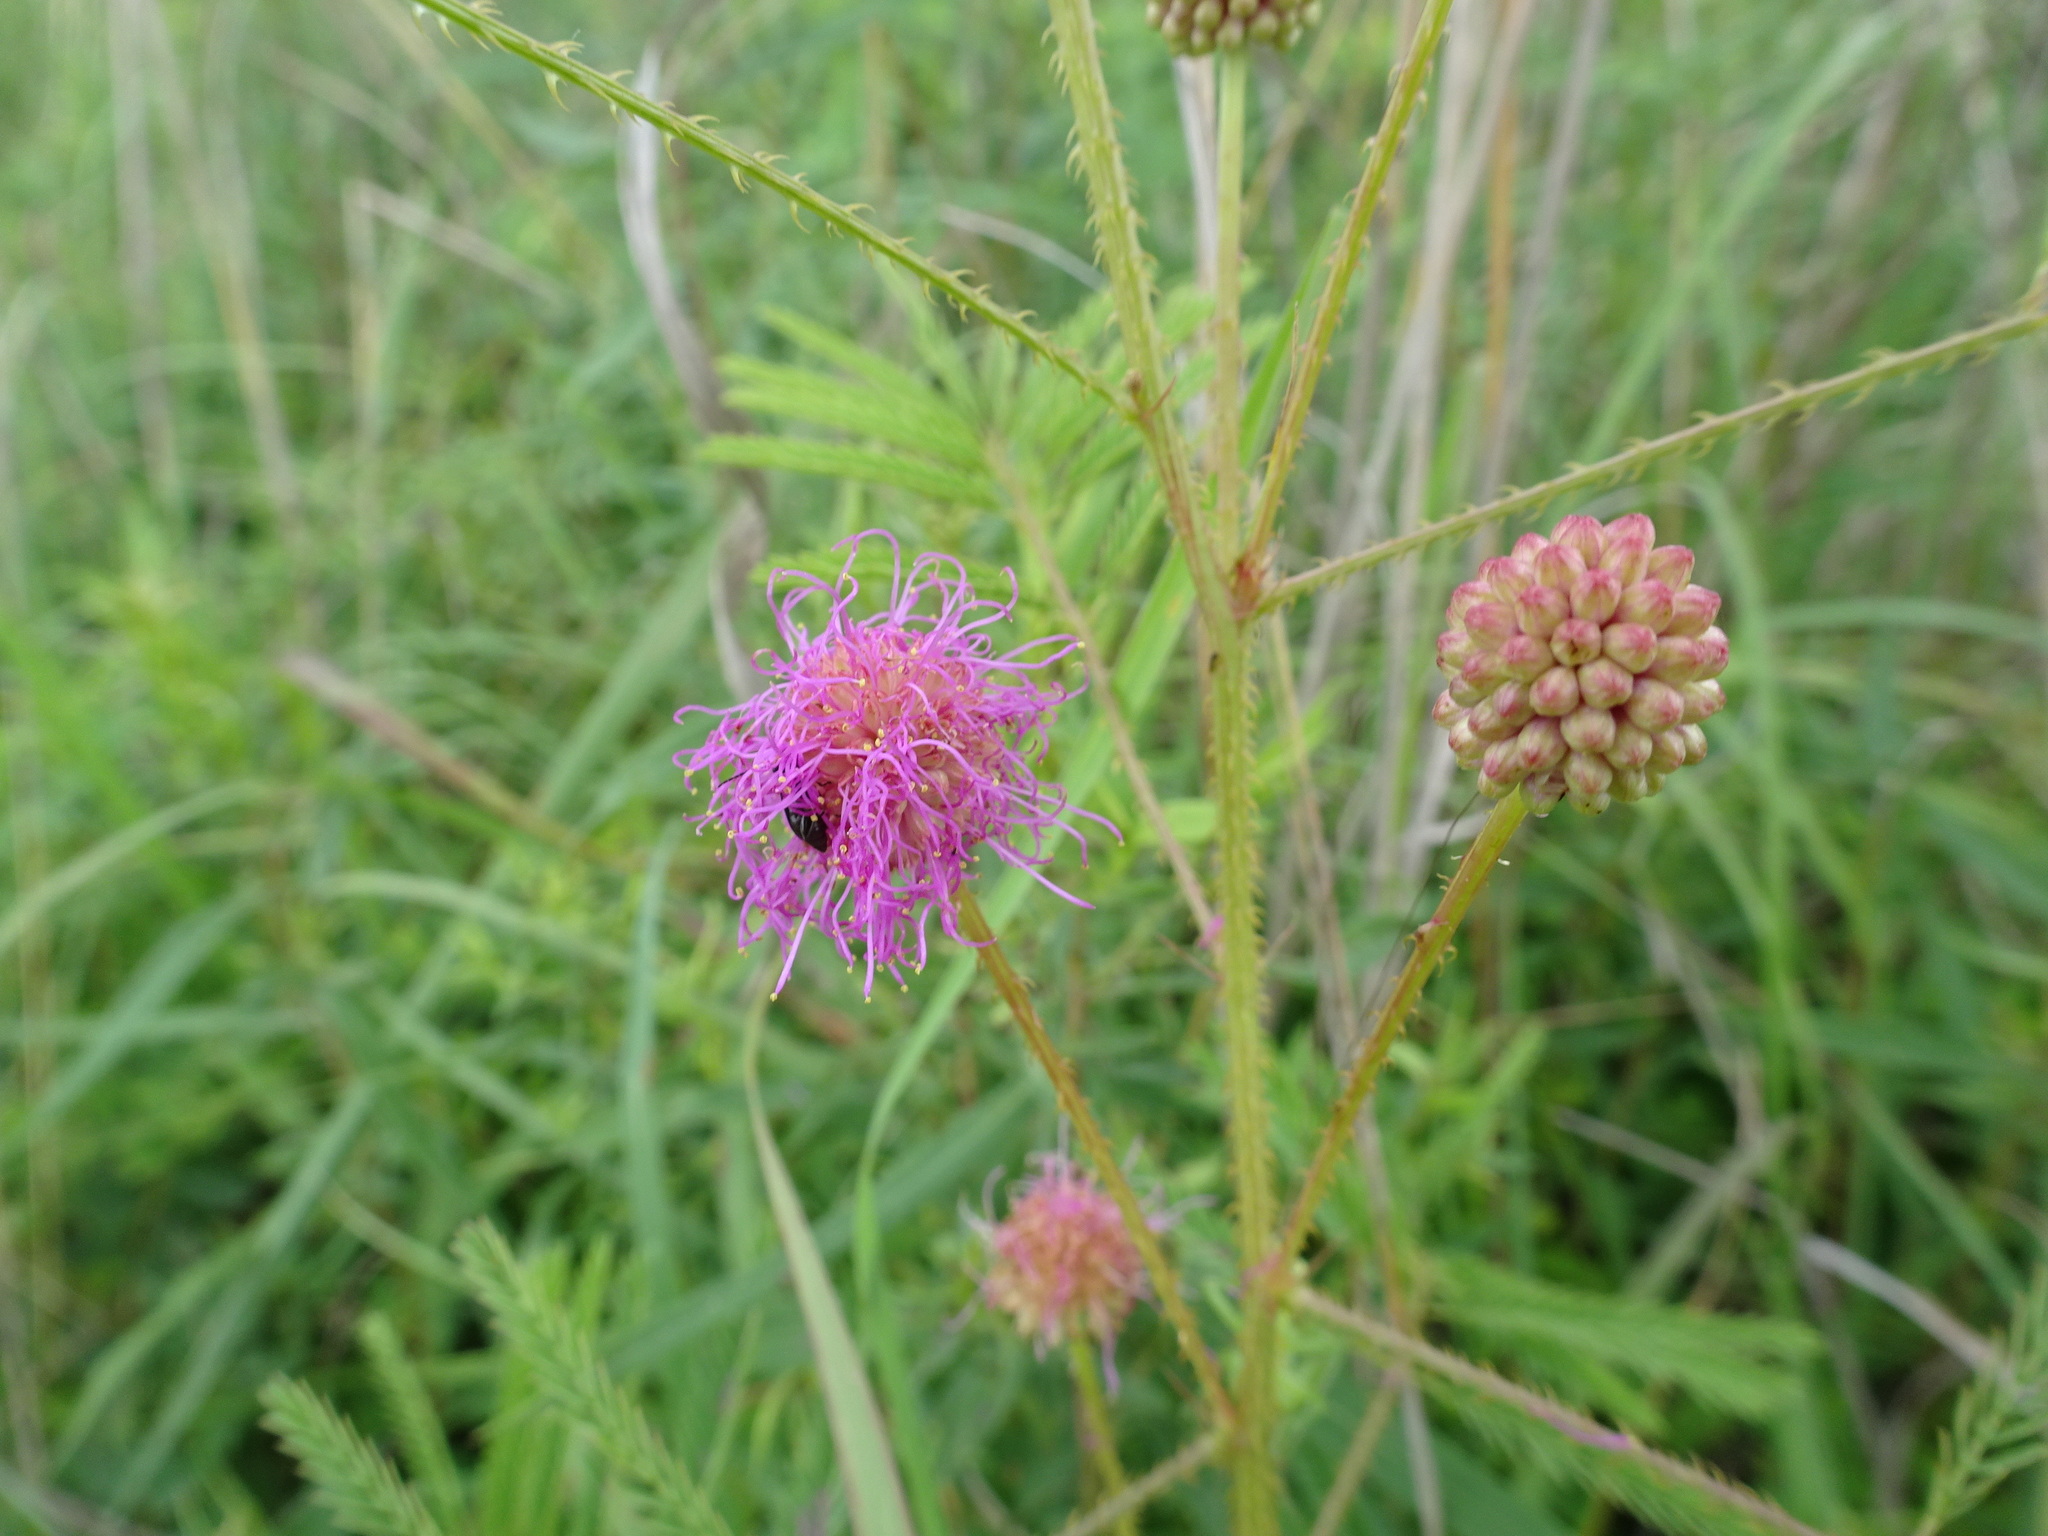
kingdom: Plantae
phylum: Tracheophyta
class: Magnoliopsida
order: Fabales
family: Fabaceae
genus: Mimosa
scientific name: Mimosa quadrivalvis
